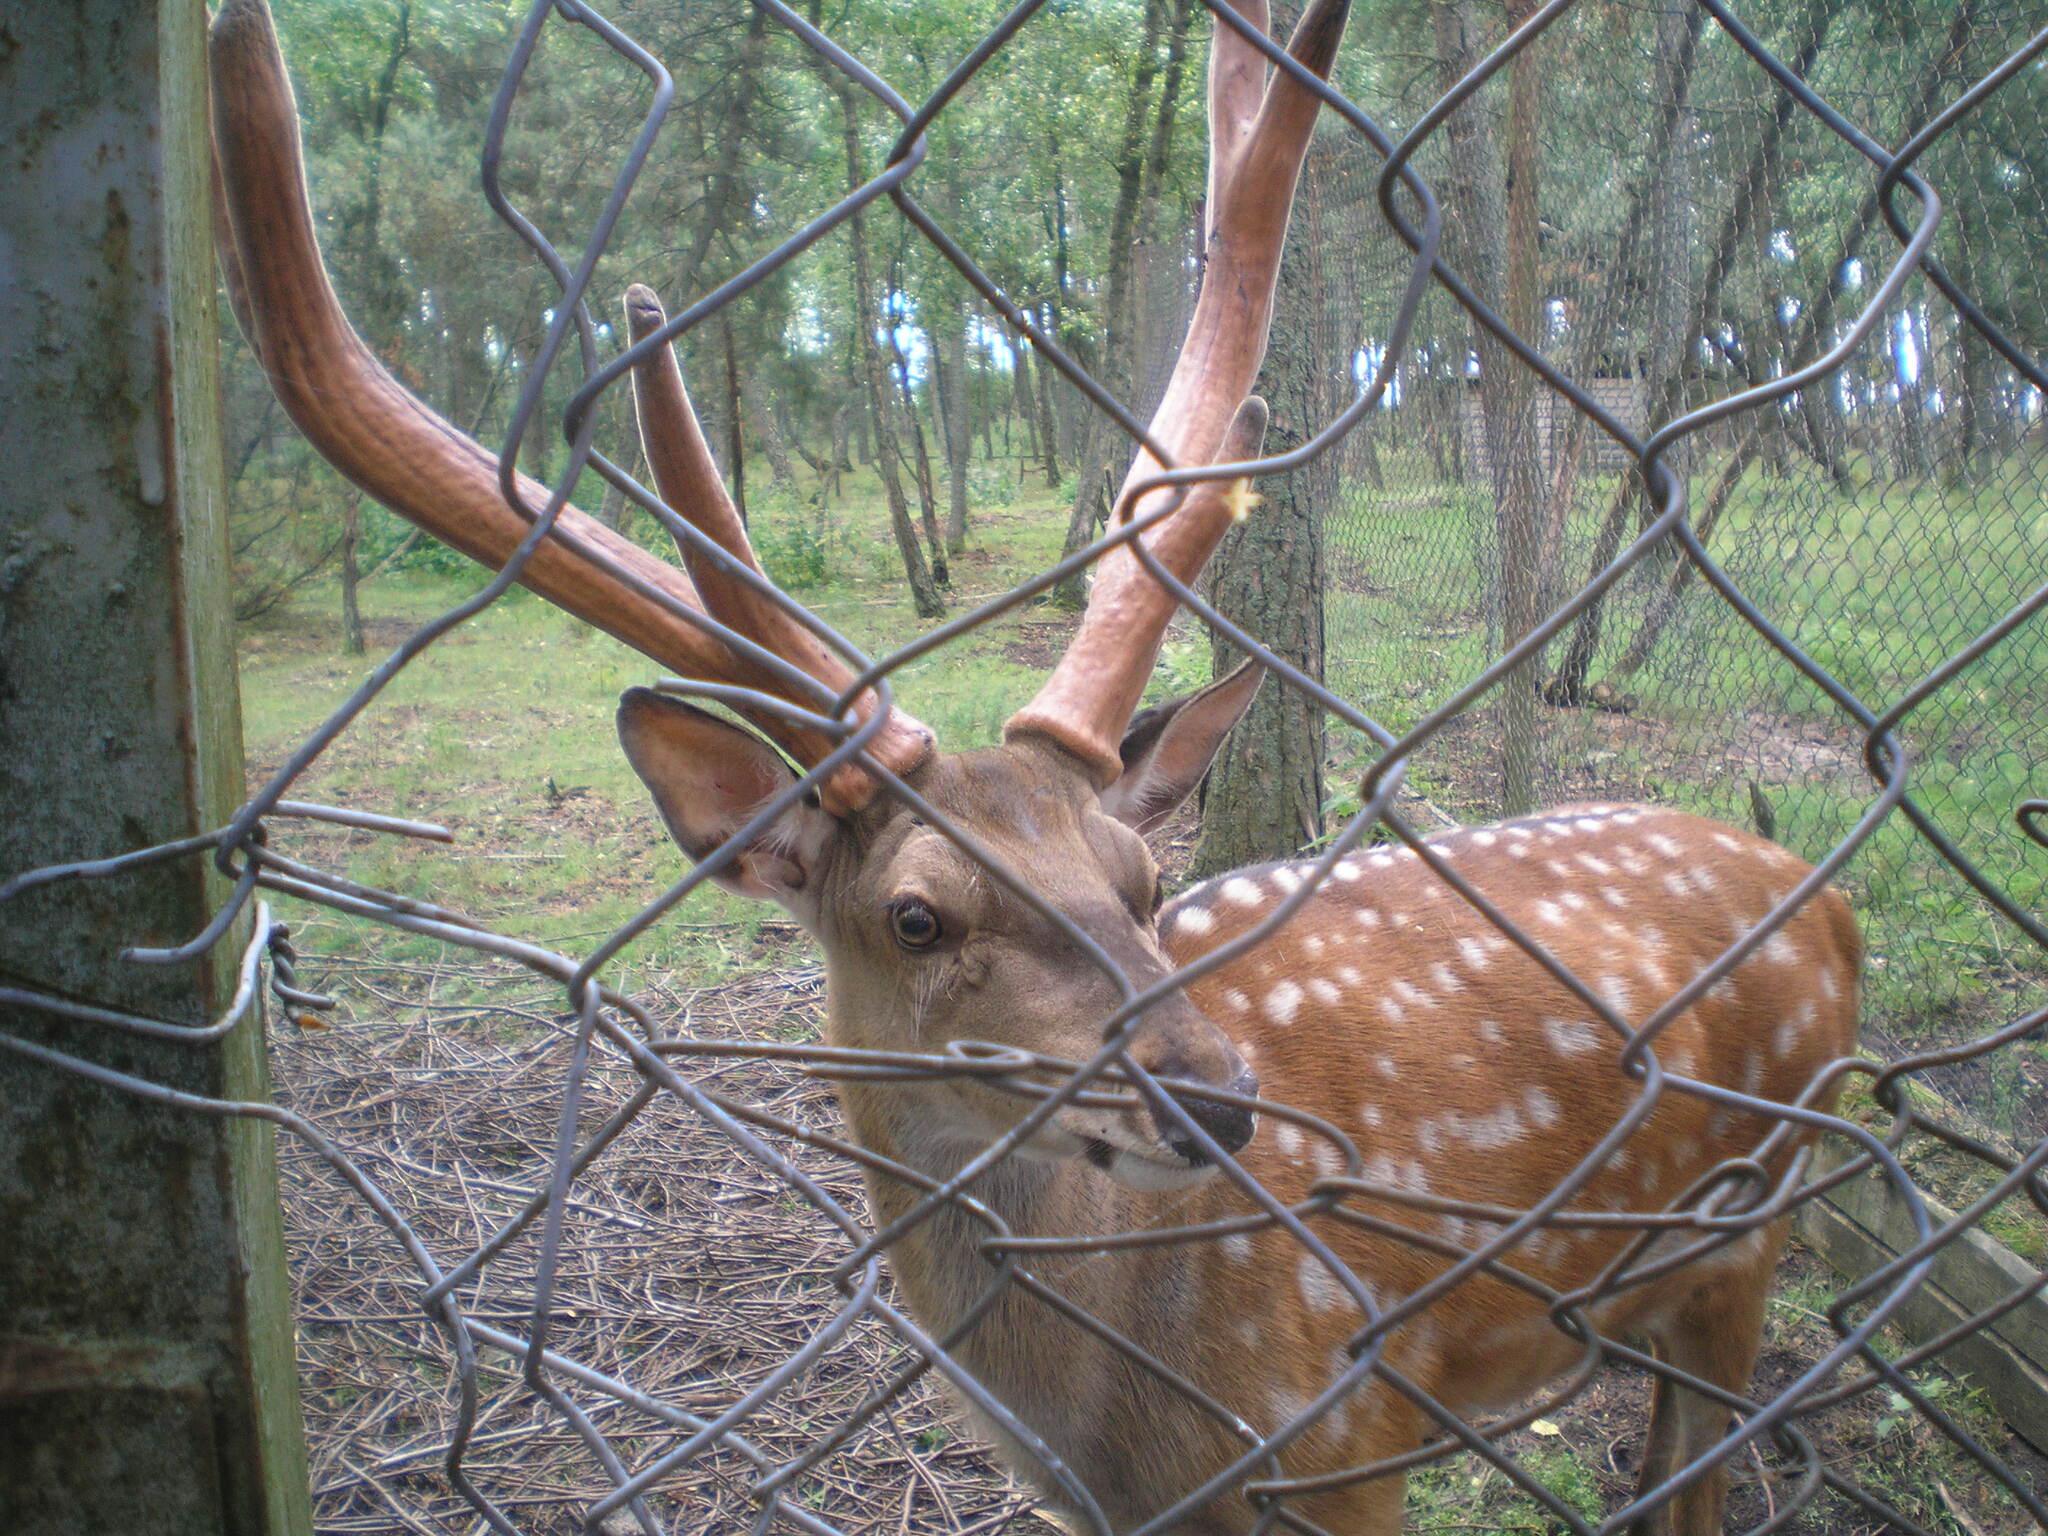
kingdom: Animalia
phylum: Chordata
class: Mammalia
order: Artiodactyla
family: Cervidae
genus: Cervus
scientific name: Cervus nippon
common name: Sika deer
